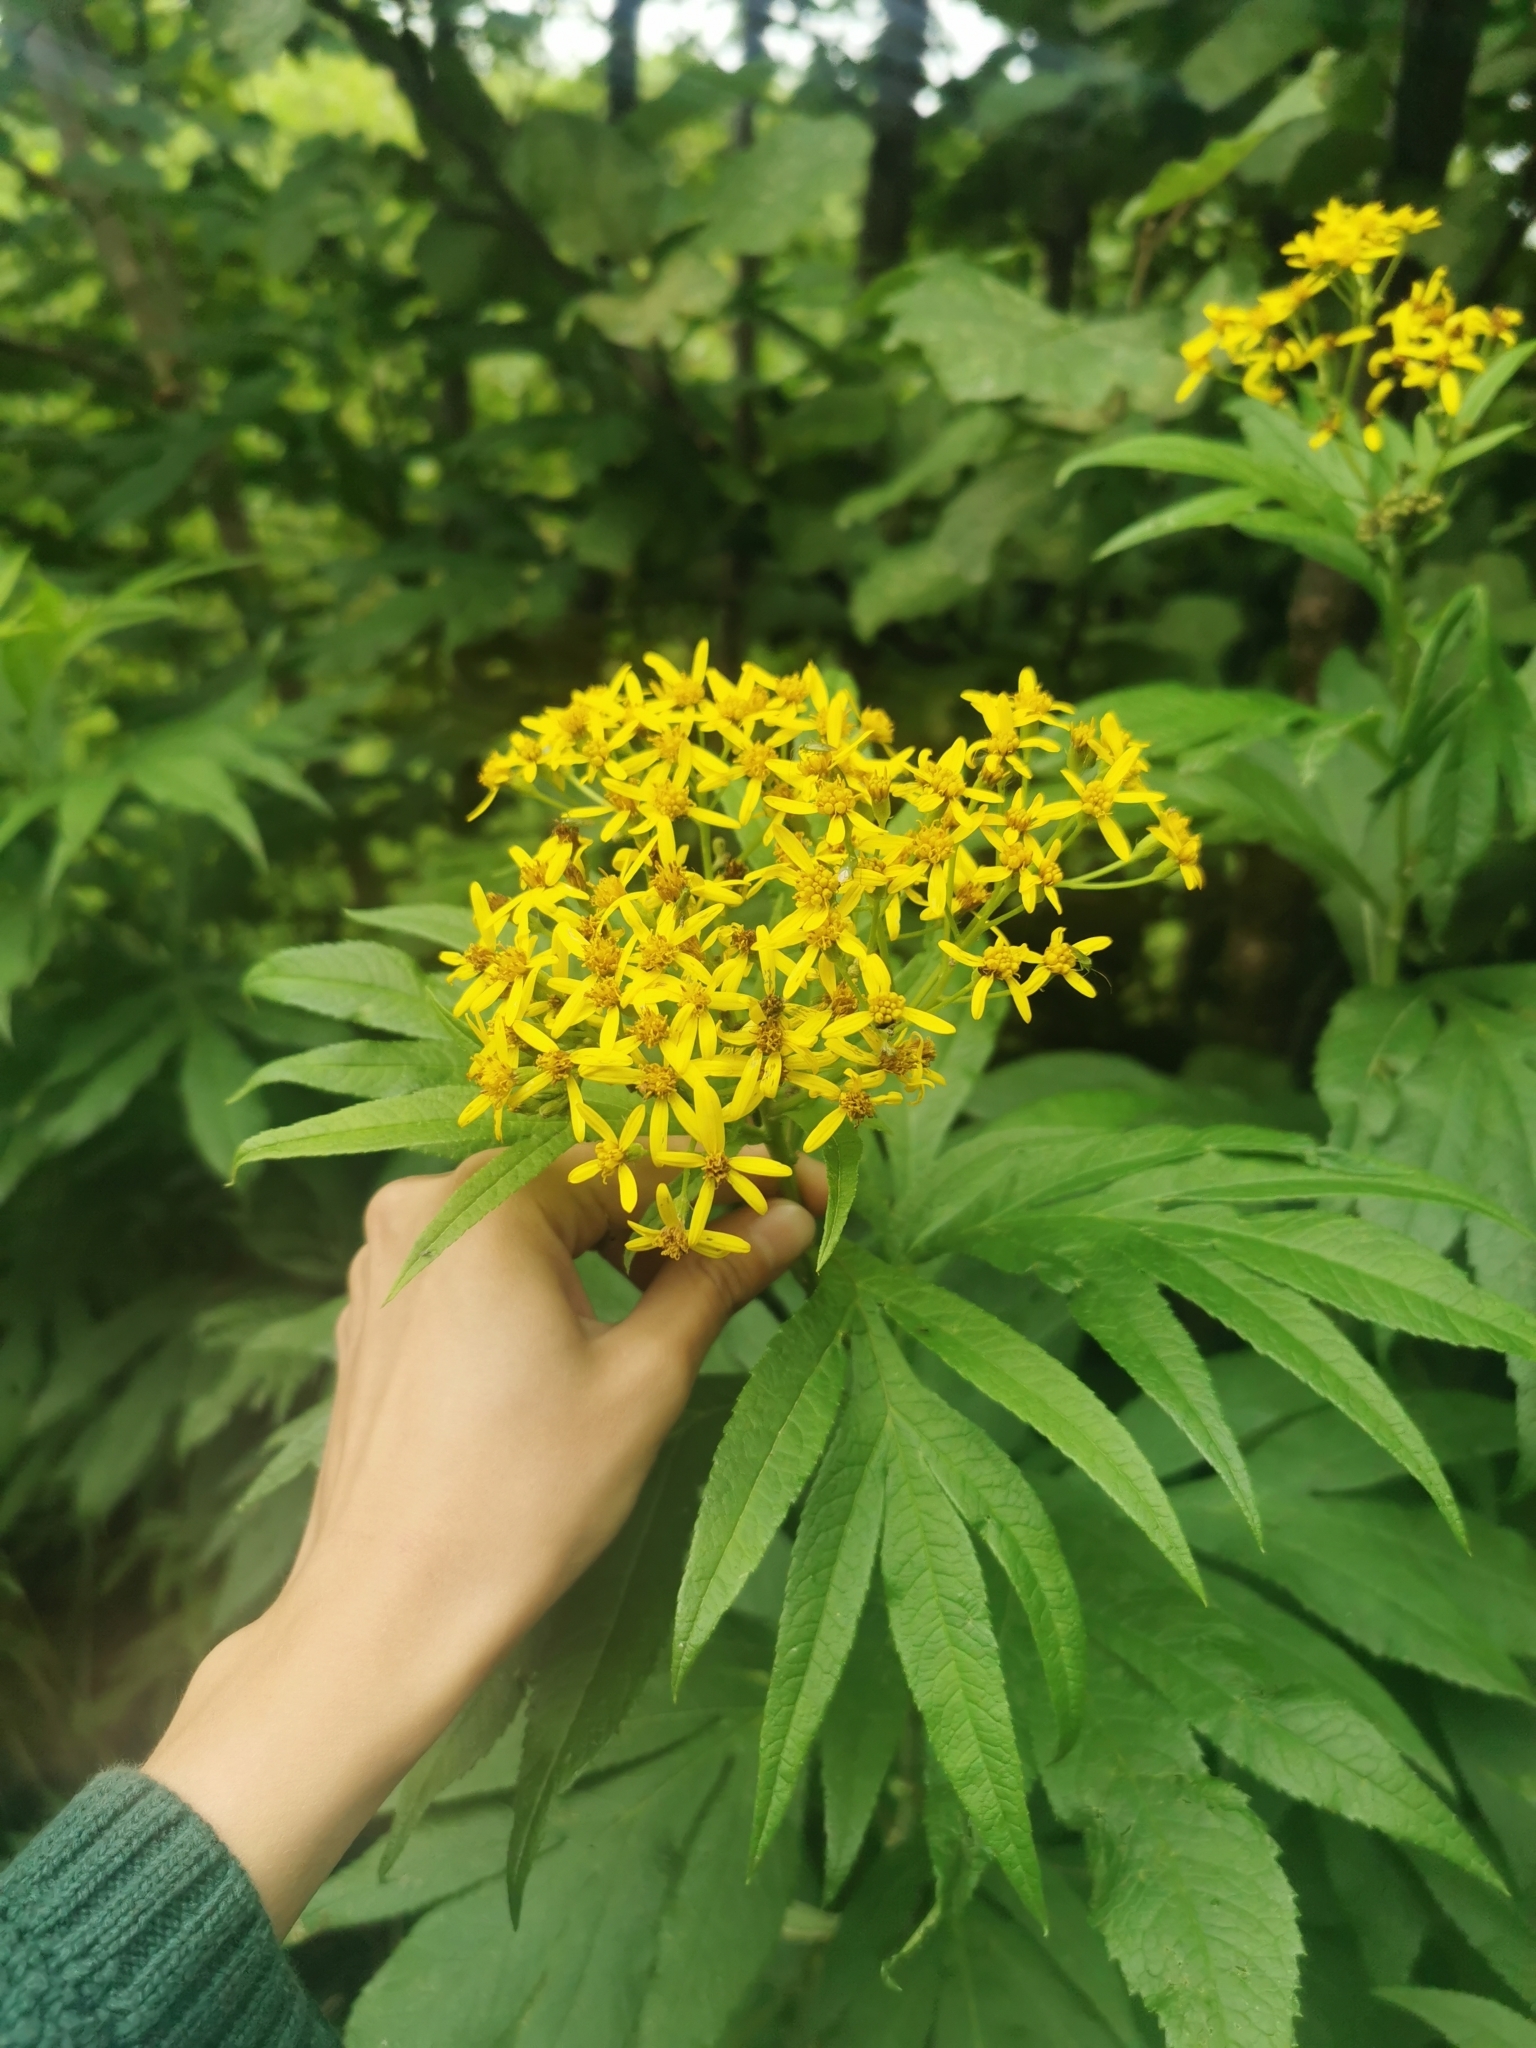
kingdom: Plantae
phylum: Tracheophyta
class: Magnoliopsida
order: Asterales
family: Asteraceae
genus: Jacobaea
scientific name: Jacobaea cannabifolia
